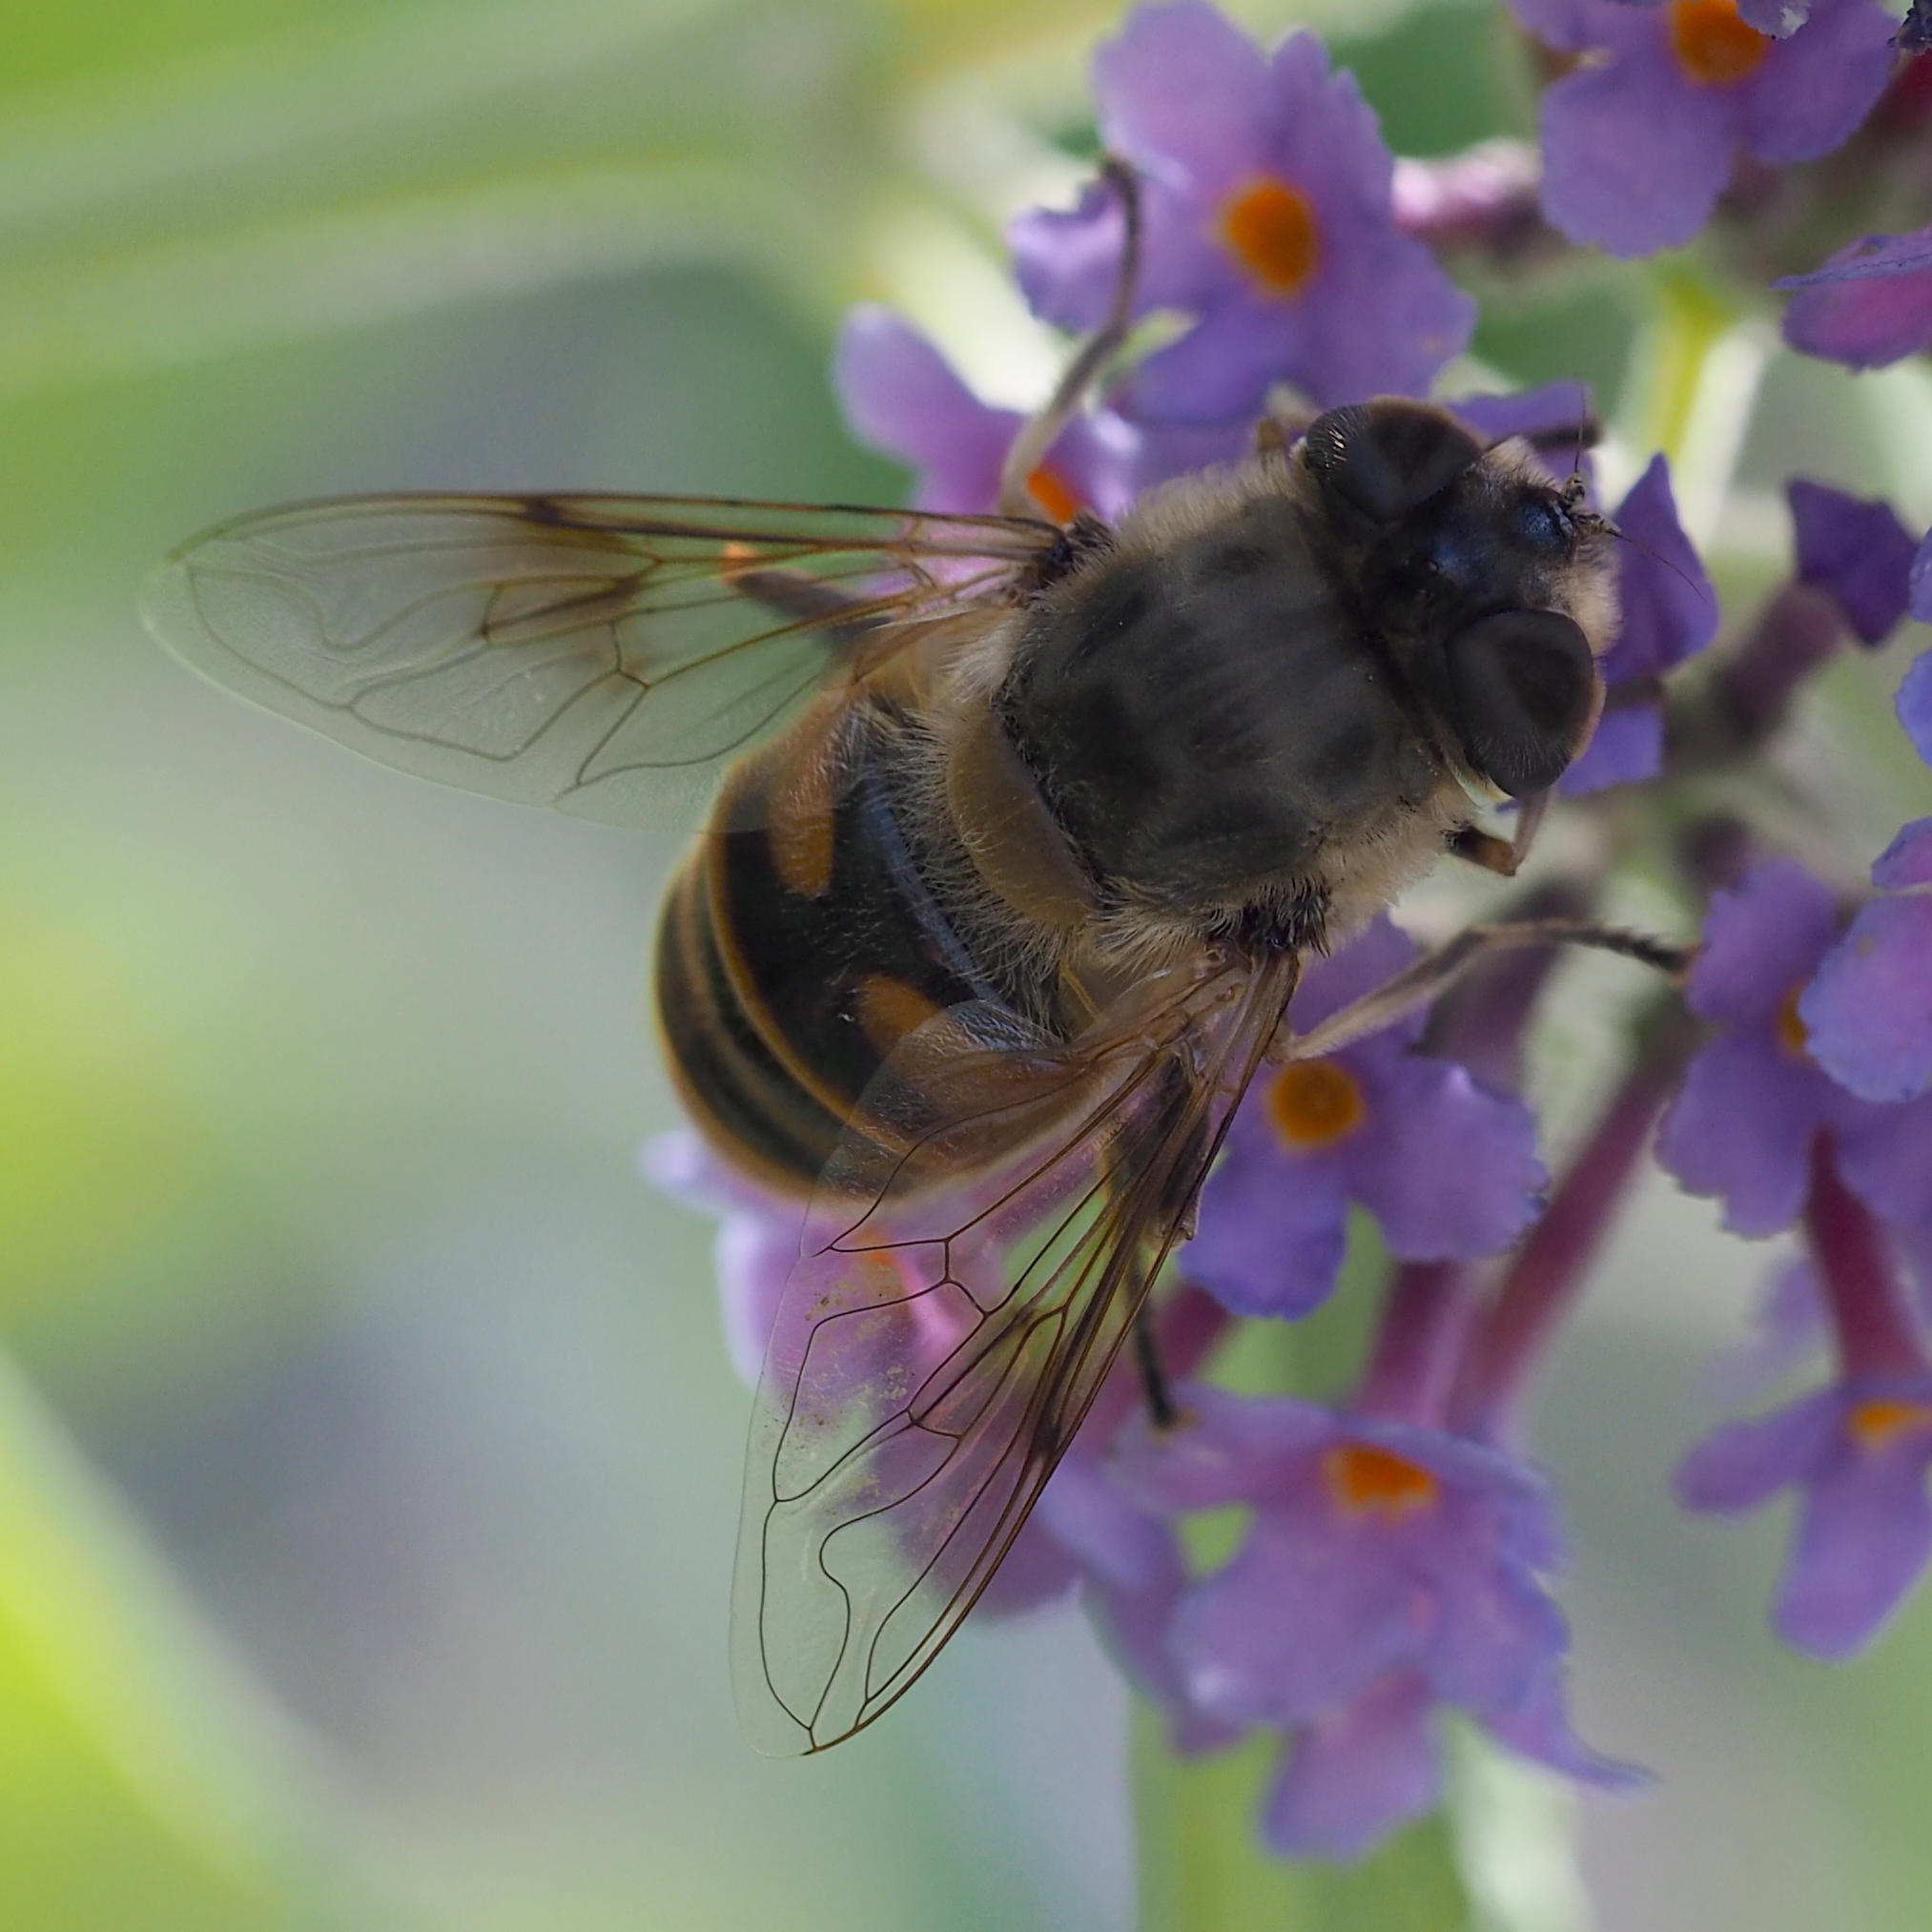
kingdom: Animalia
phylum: Arthropoda
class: Insecta
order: Diptera
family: Syrphidae
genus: Eristalis
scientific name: Eristalis tenax
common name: Drone fly
